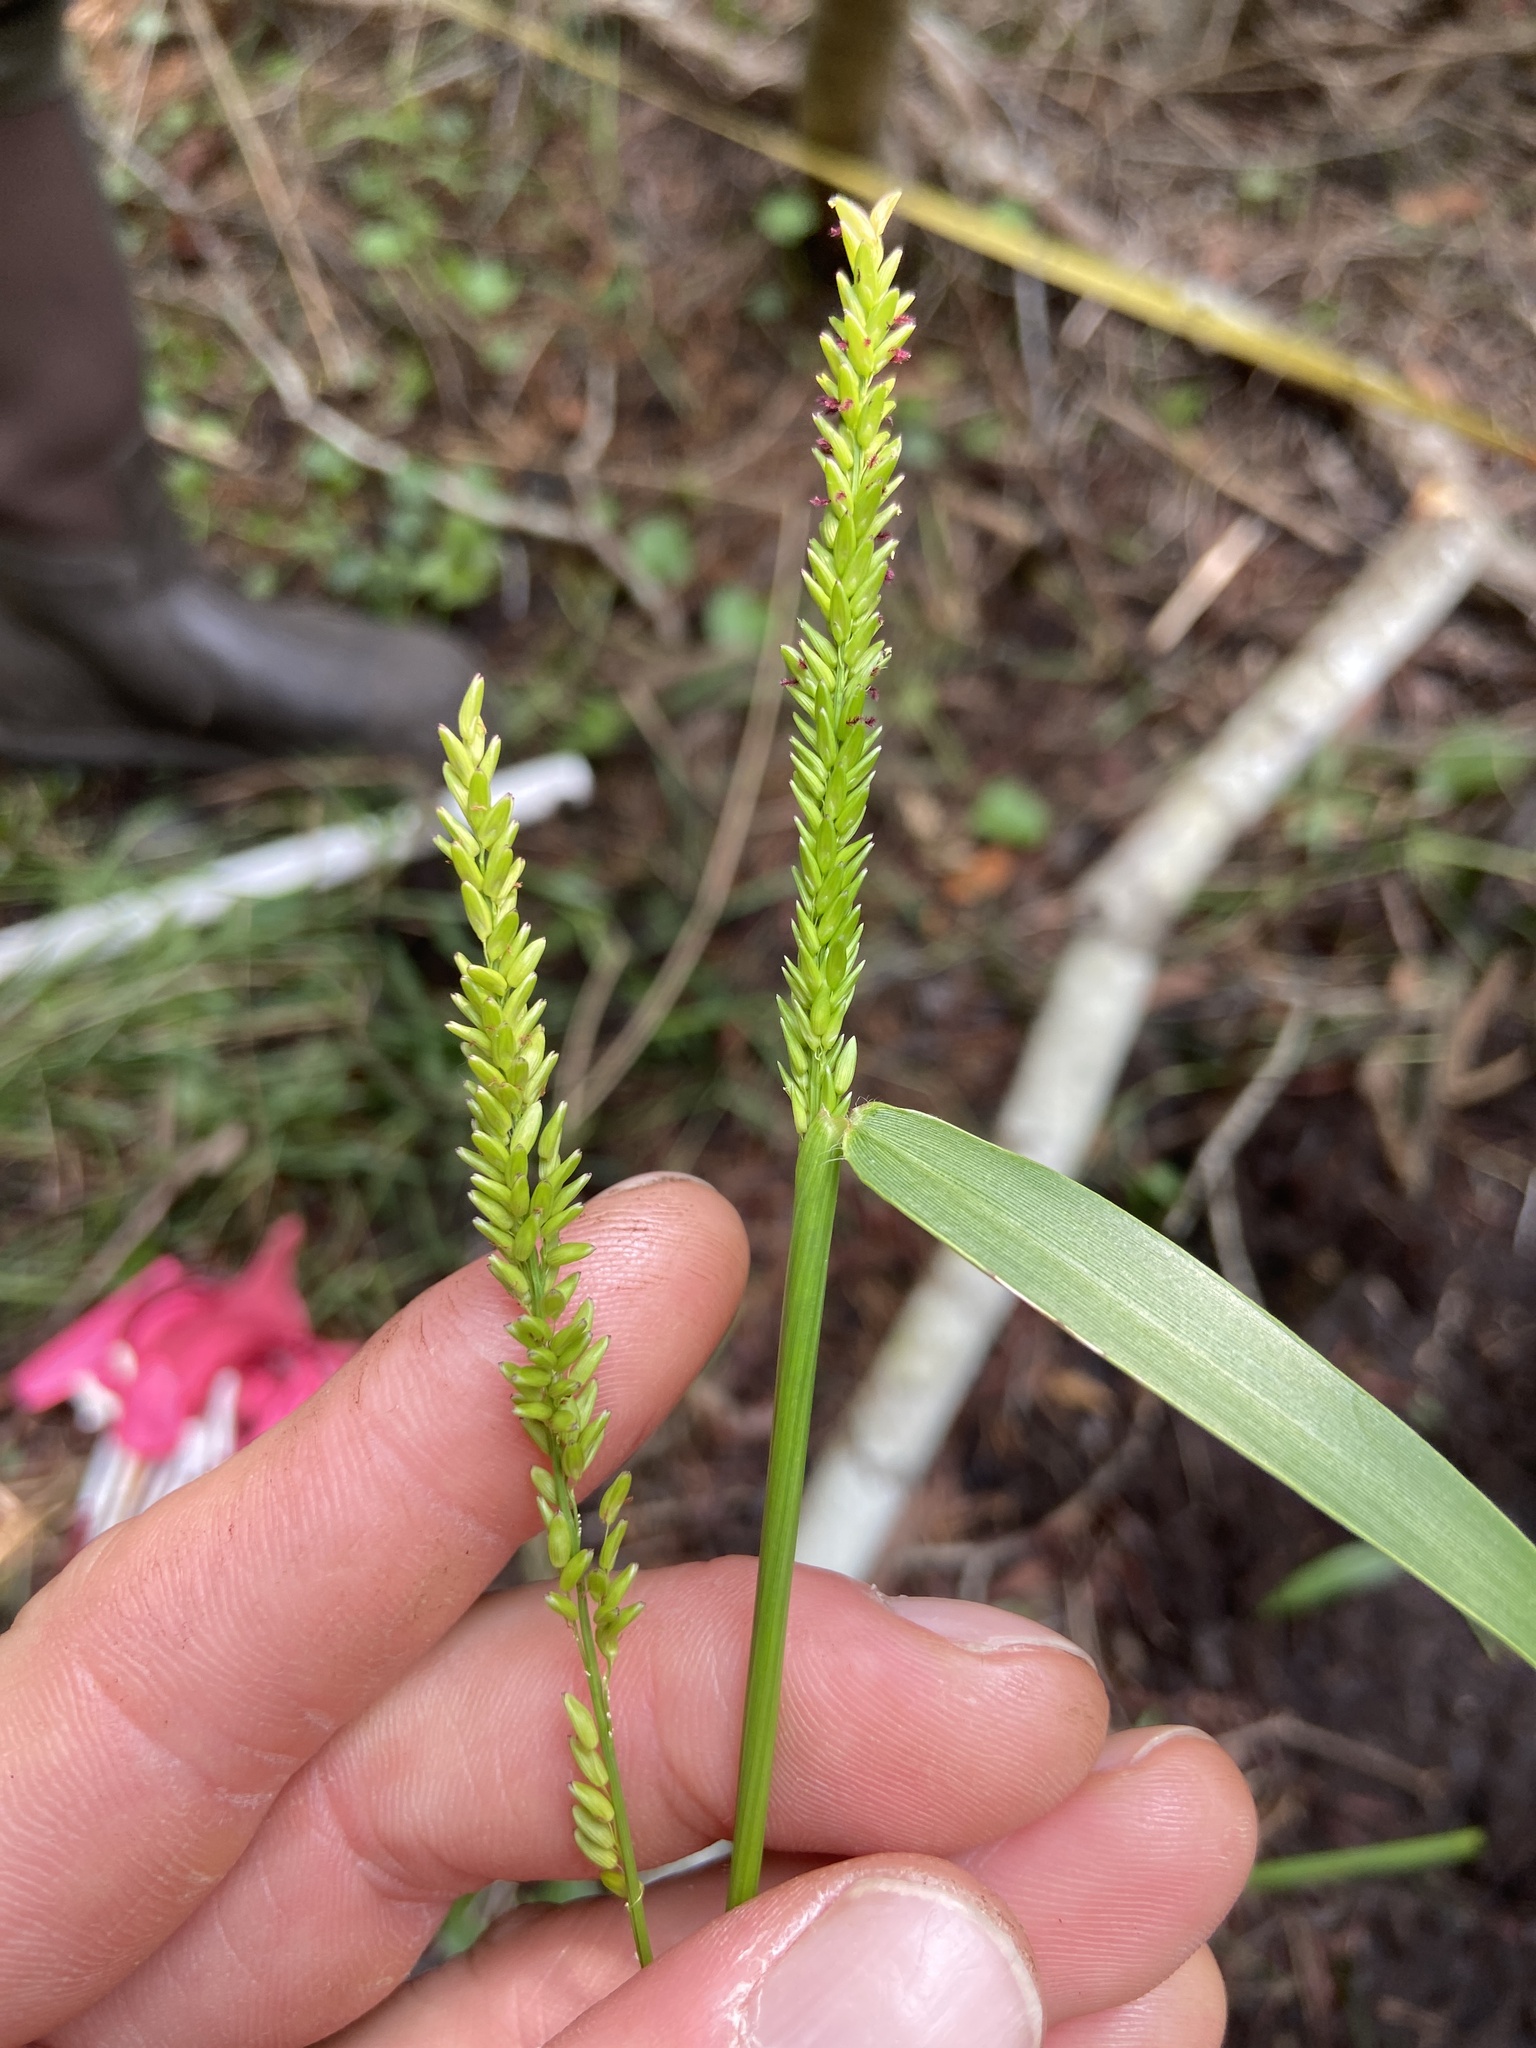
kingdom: Plantae
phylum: Tracheophyta
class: Liliopsida
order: Poales
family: Poaceae
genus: Sacciolepis
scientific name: Sacciolepis striata
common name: American cupscale
